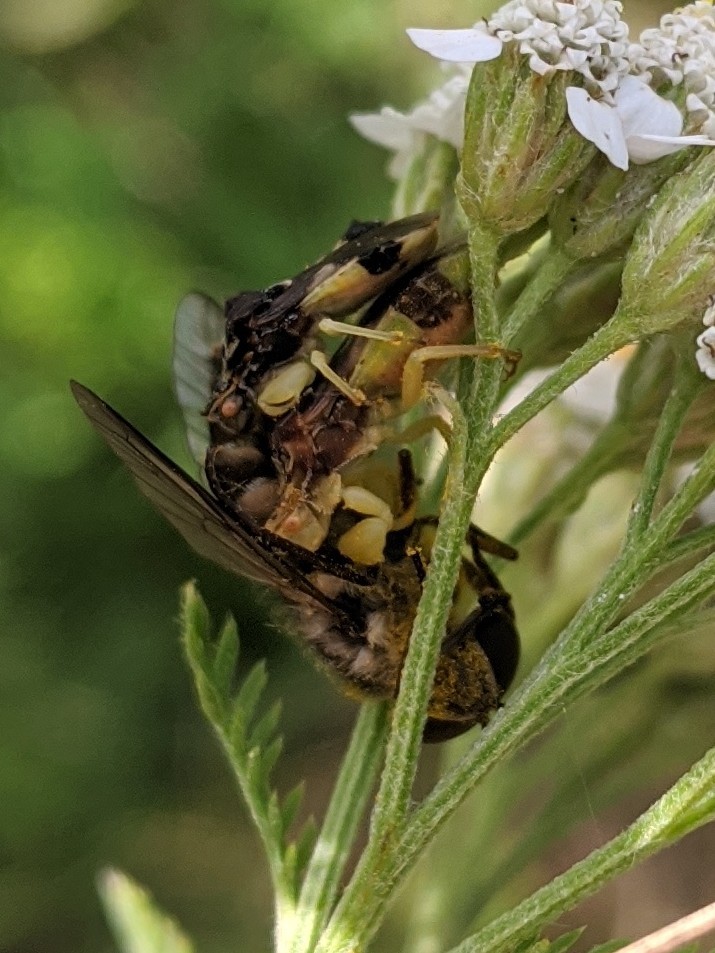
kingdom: Animalia
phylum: Arthropoda
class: Insecta
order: Hemiptera
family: Reduviidae
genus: Phymata
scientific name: Phymata pennsylvanica
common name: Pennsylvania ambush bug
